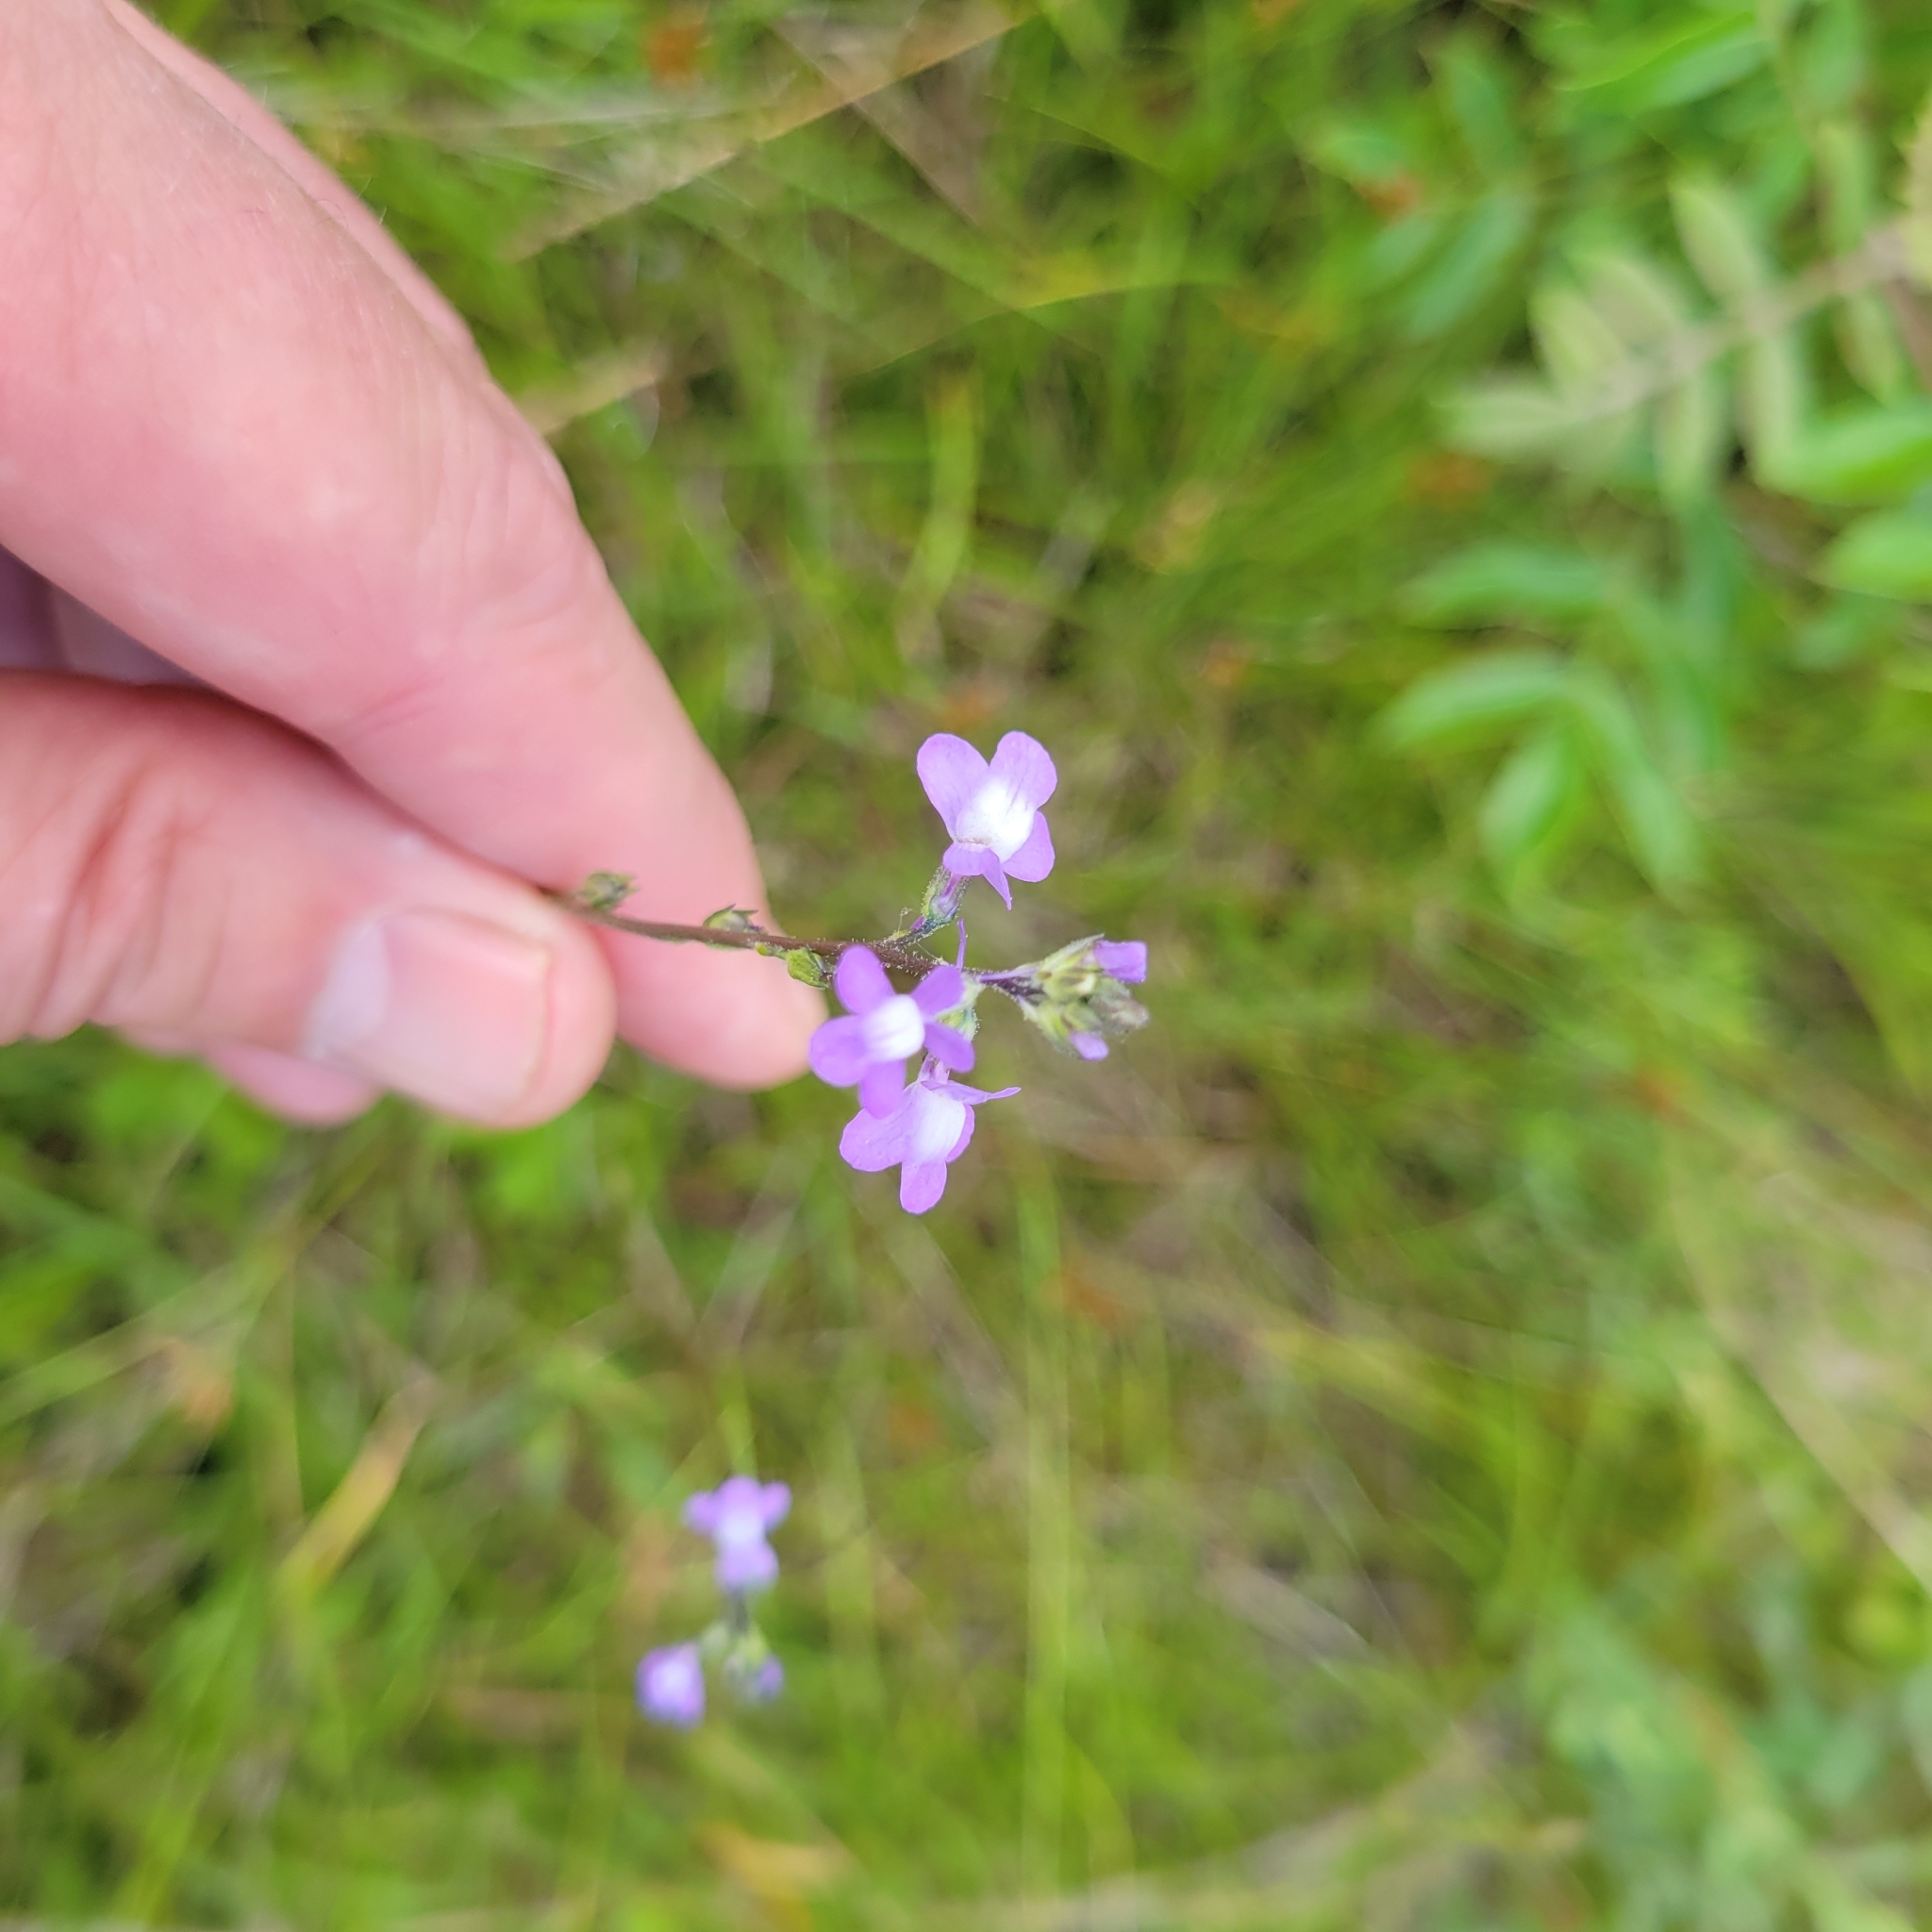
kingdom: Plantae
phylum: Tracheophyta
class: Magnoliopsida
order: Lamiales
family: Plantaginaceae
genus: Nuttallanthus
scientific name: Nuttallanthus canadensis
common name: Blue toadflax
